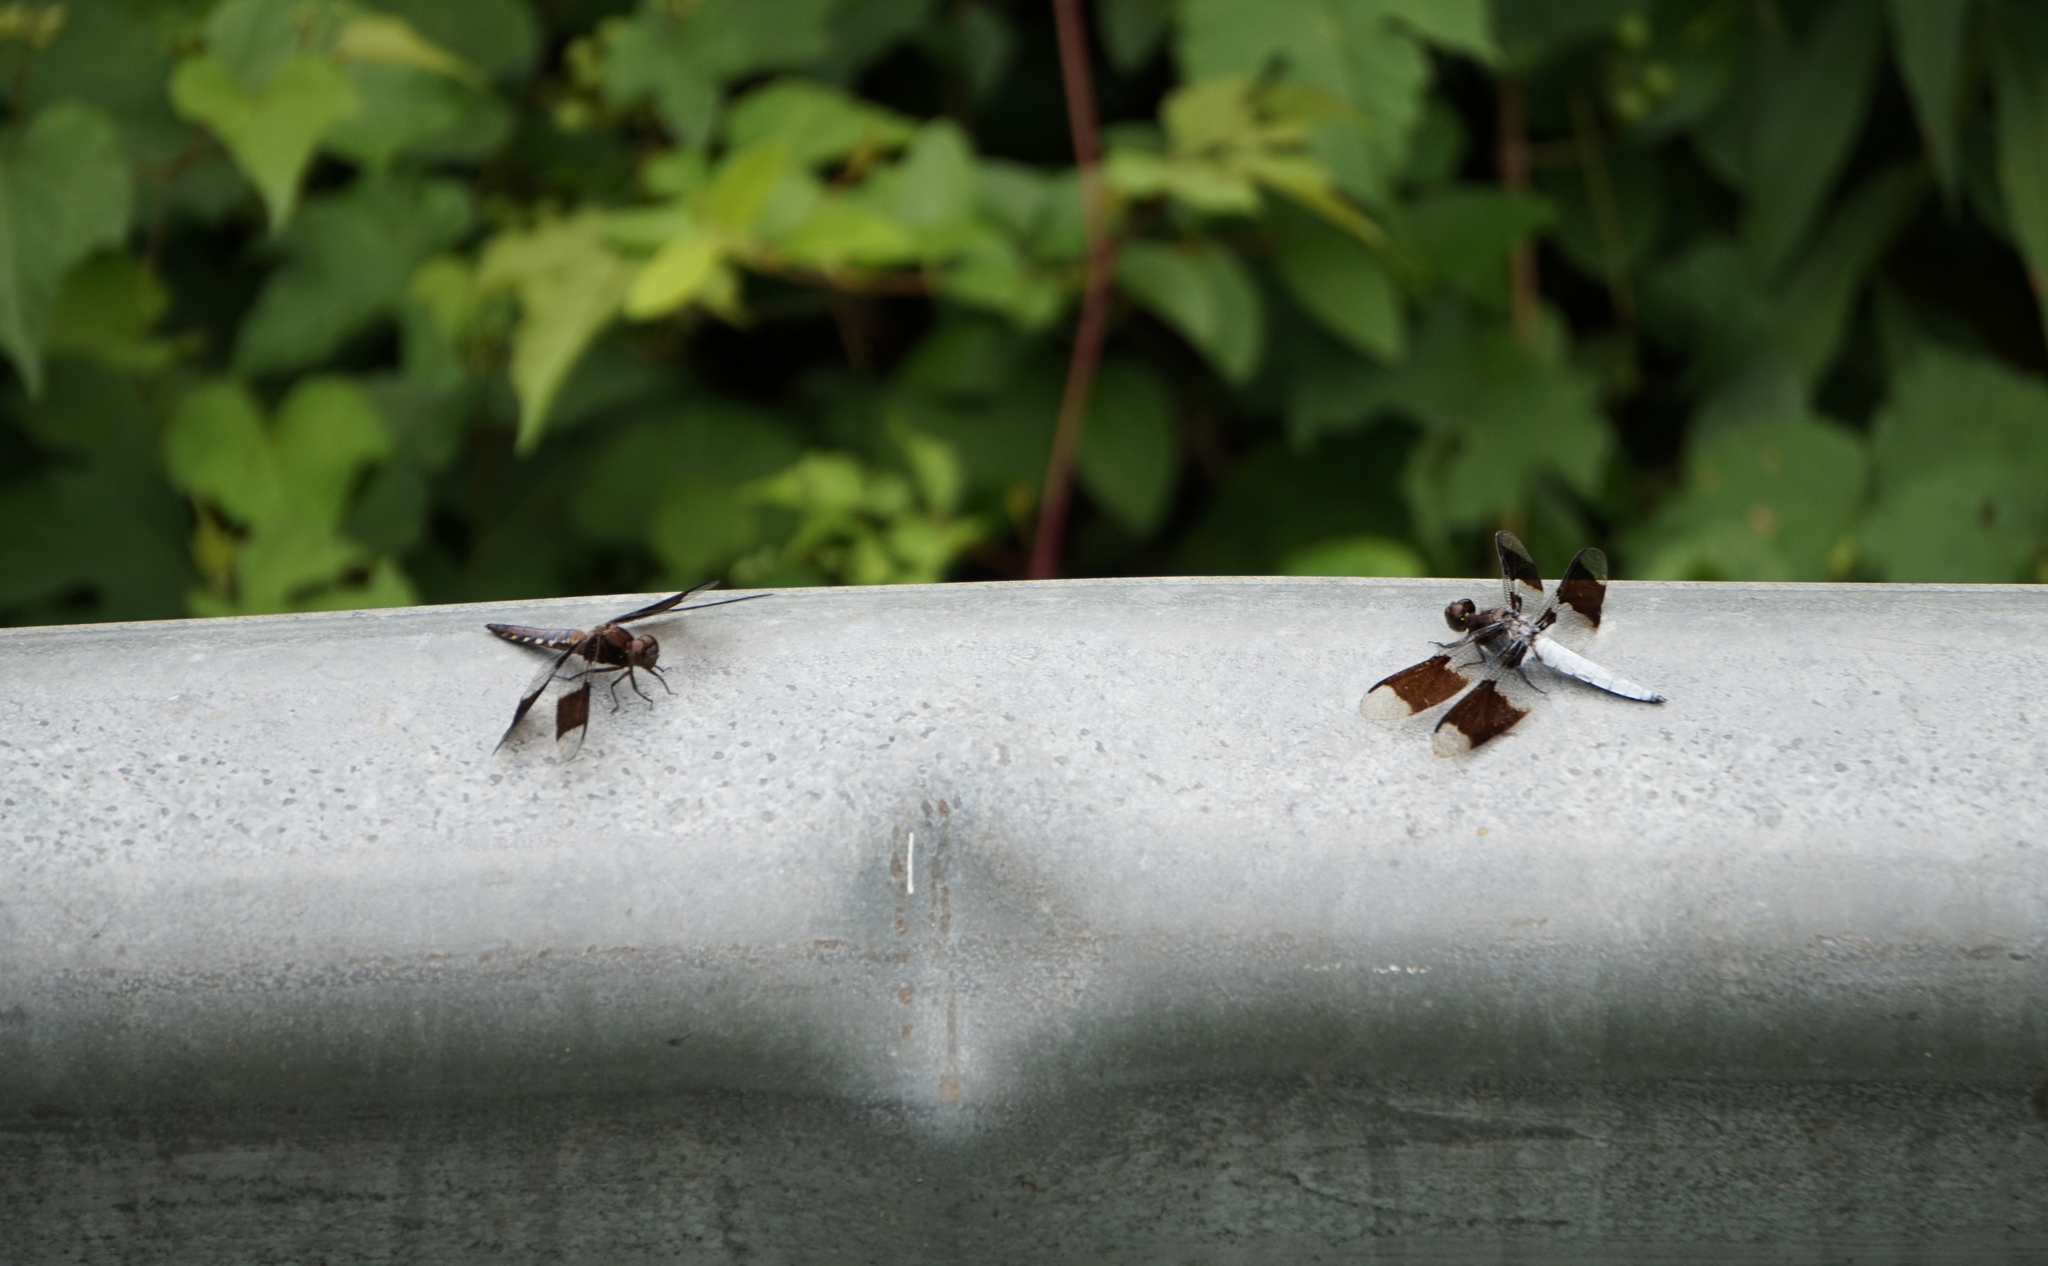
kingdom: Animalia
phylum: Arthropoda
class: Insecta
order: Odonata
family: Libellulidae
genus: Plathemis
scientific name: Plathemis lydia
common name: Common whitetail
